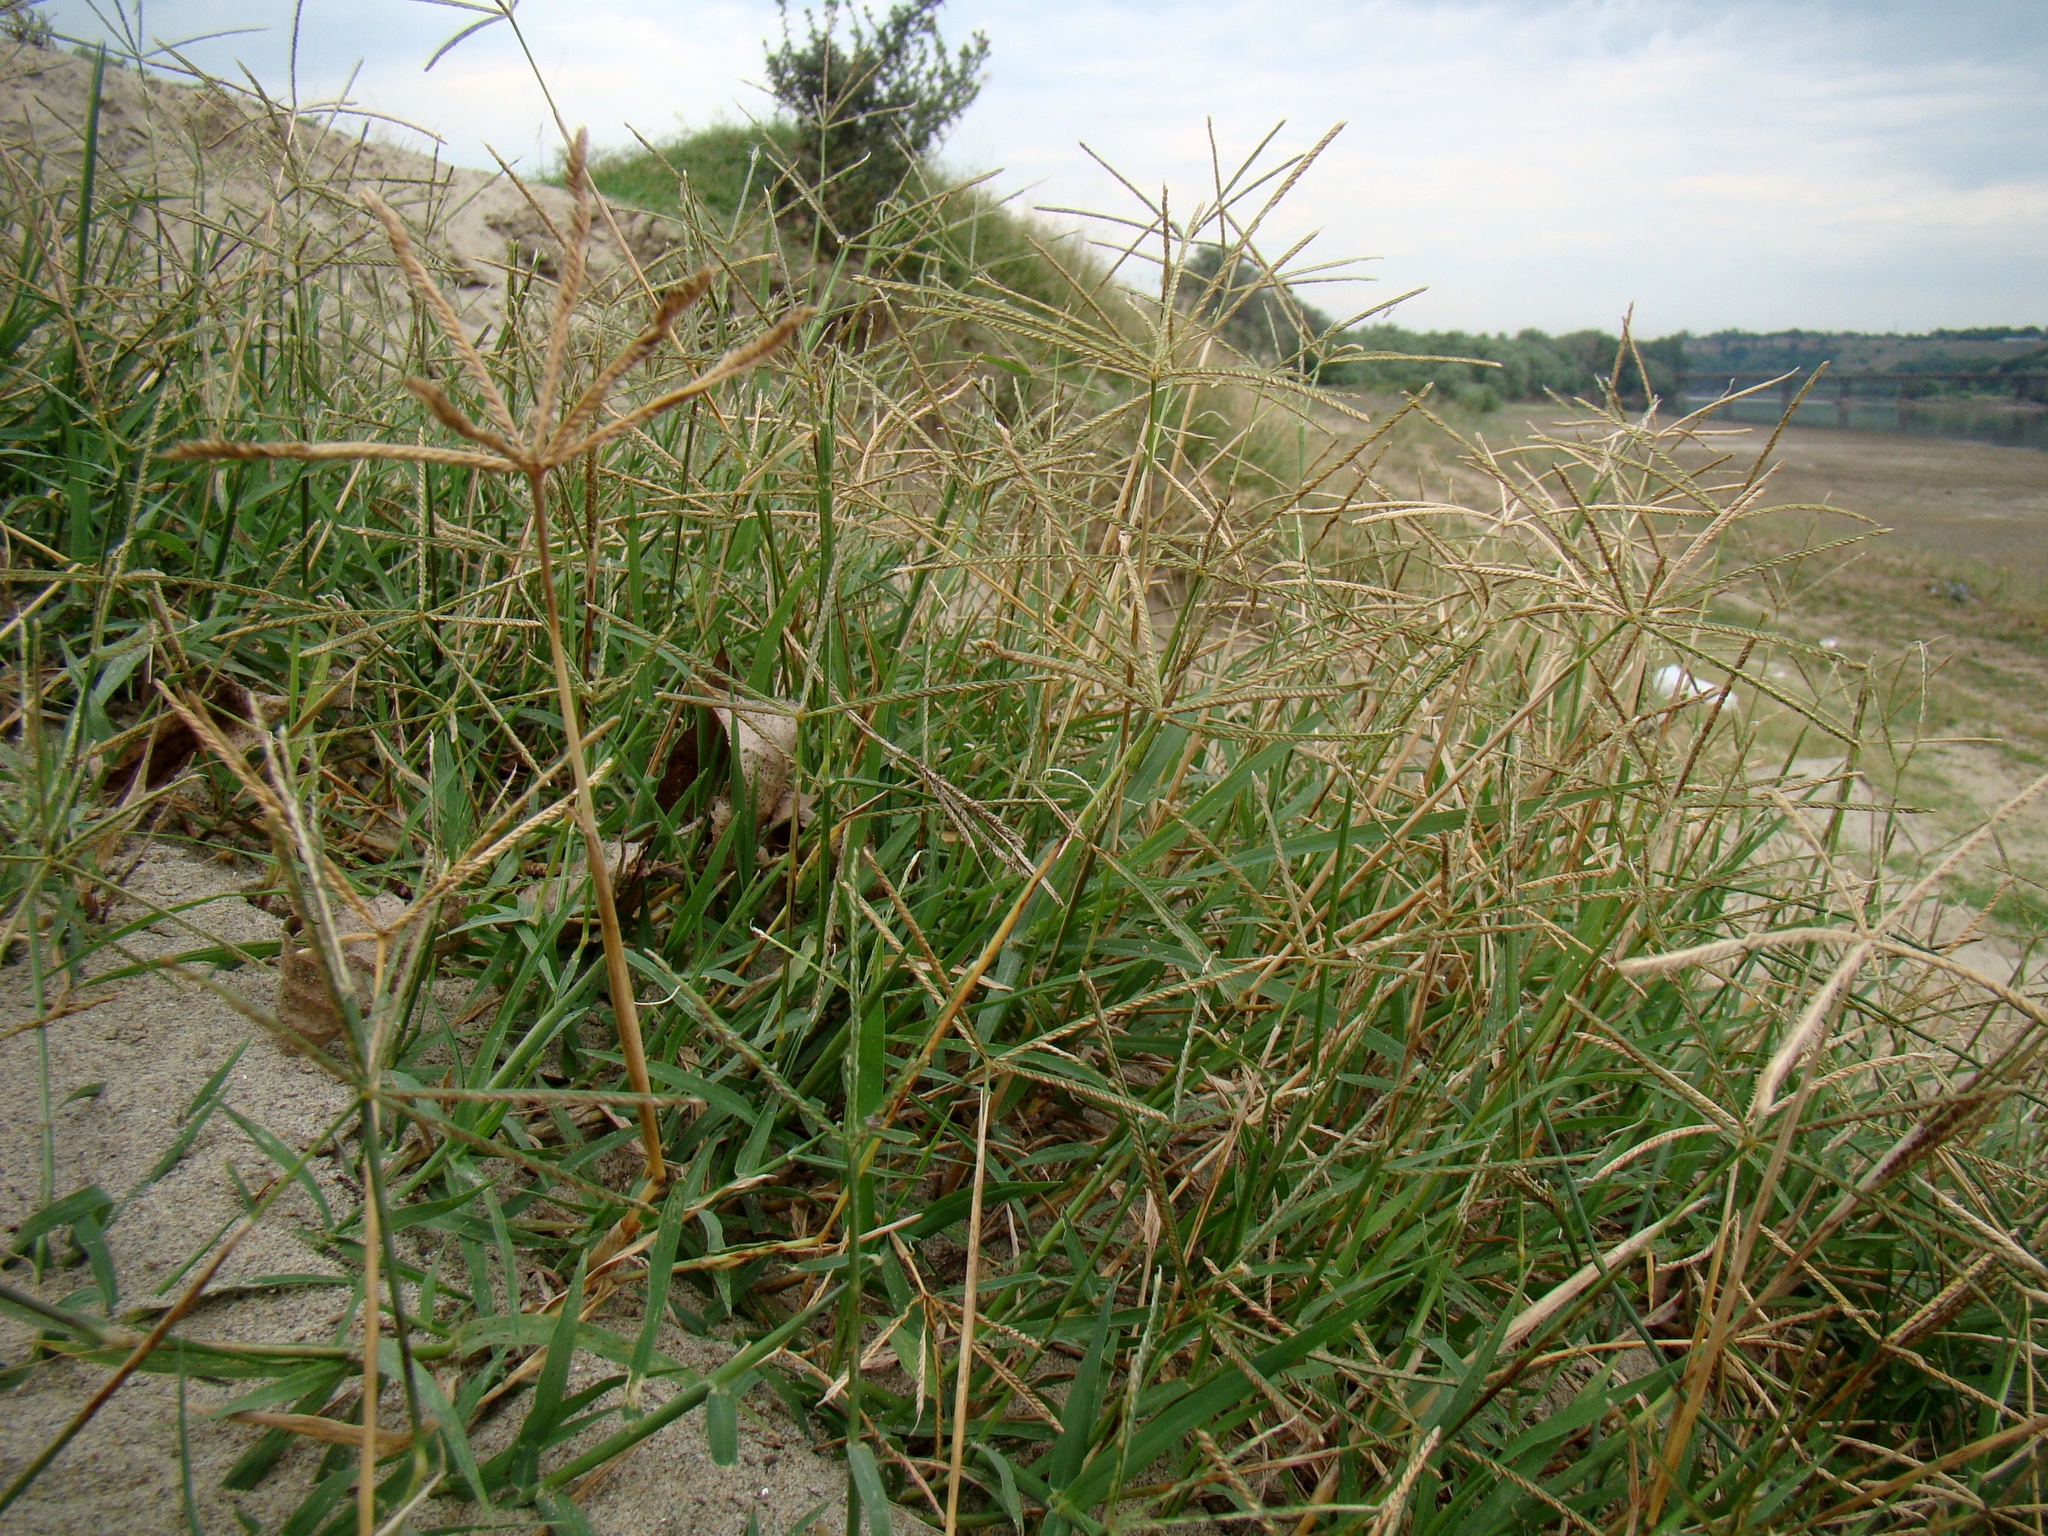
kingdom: Plantae
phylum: Tracheophyta
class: Liliopsida
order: Poales
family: Poaceae
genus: Cynodon
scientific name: Cynodon dactylon
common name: Bermuda grass
